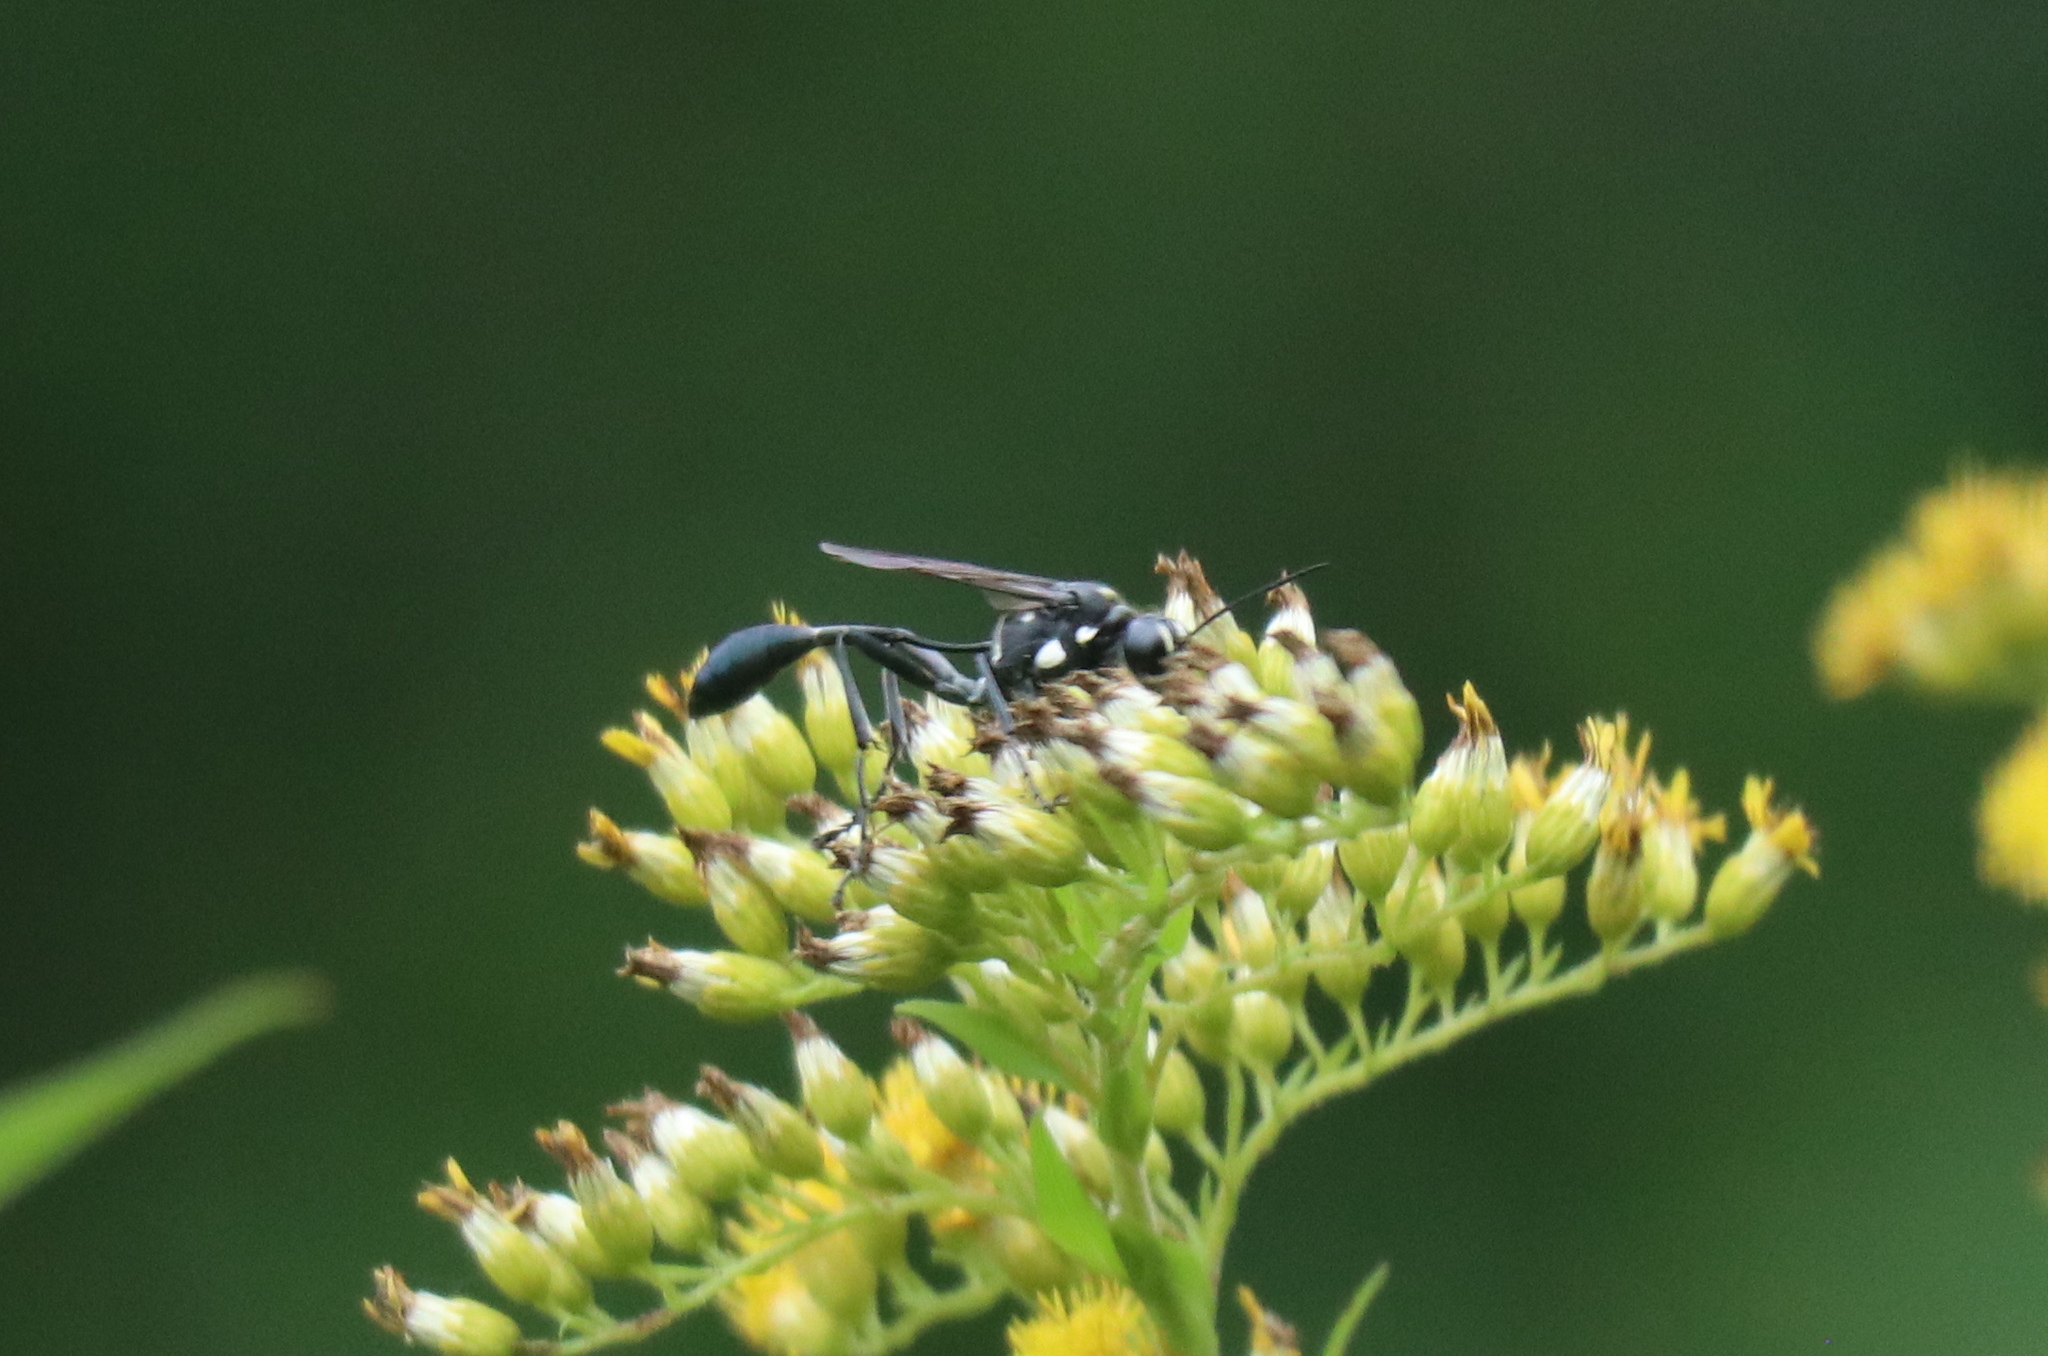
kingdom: Animalia
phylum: Arthropoda
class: Insecta
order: Hymenoptera
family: Sphecidae
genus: Eremnophila
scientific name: Eremnophila aureonotata
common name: Gold-marked thread-waisted wasp
